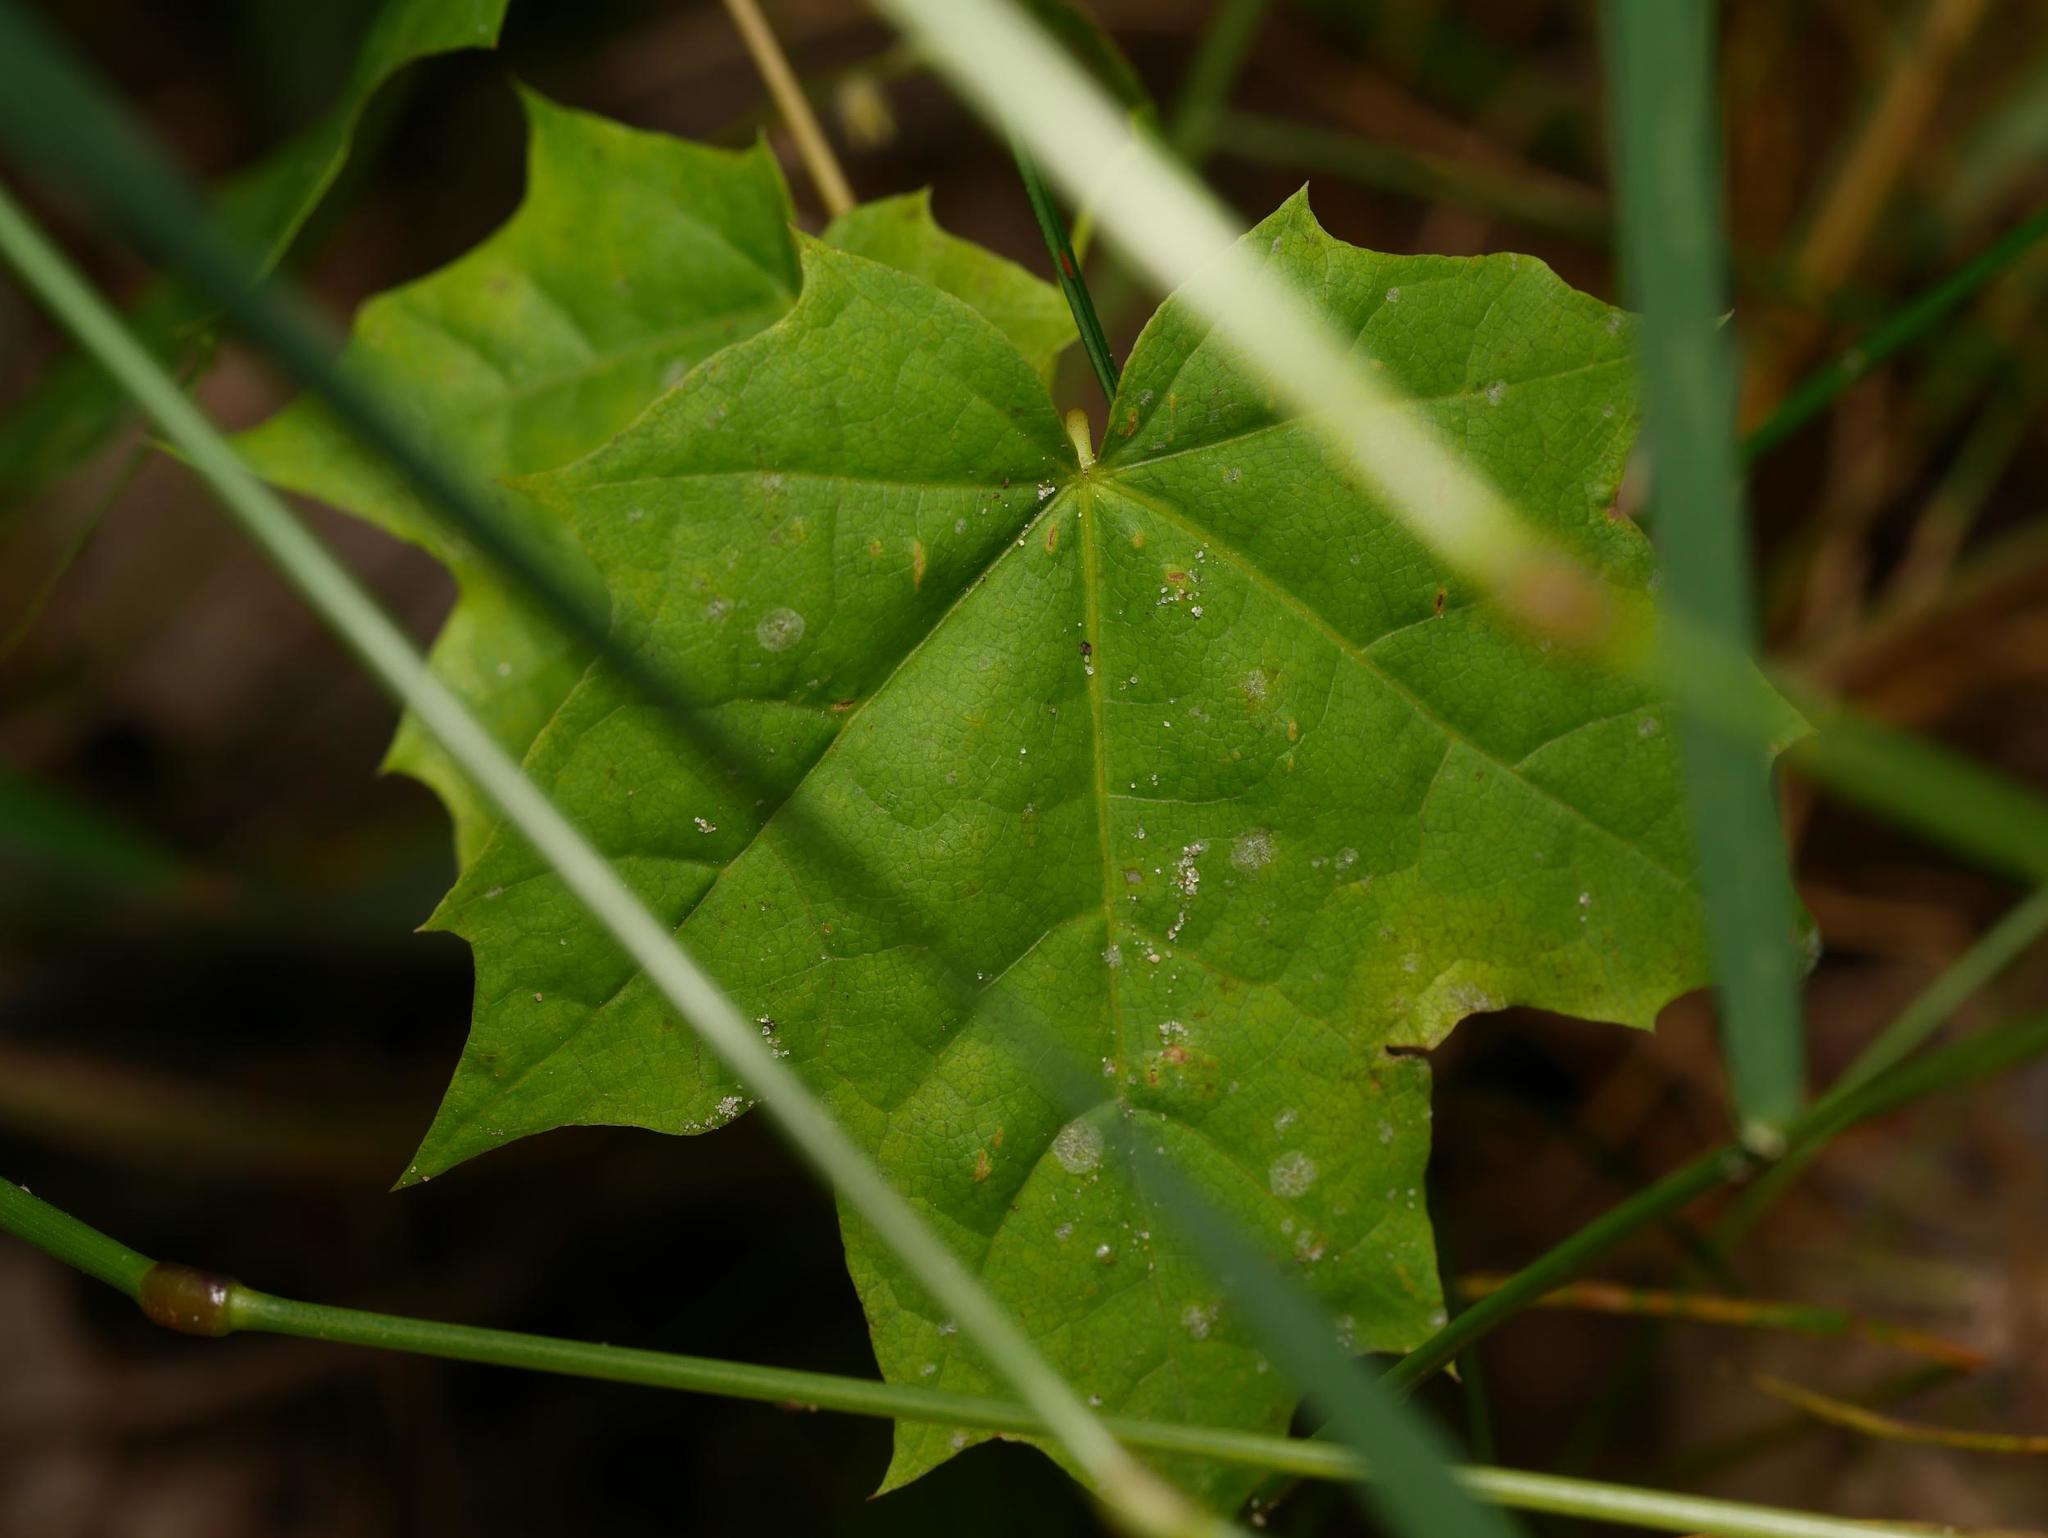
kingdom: Plantae
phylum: Tracheophyta
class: Magnoliopsida
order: Sapindales
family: Sapindaceae
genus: Acer
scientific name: Acer platanoides
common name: Norway maple
